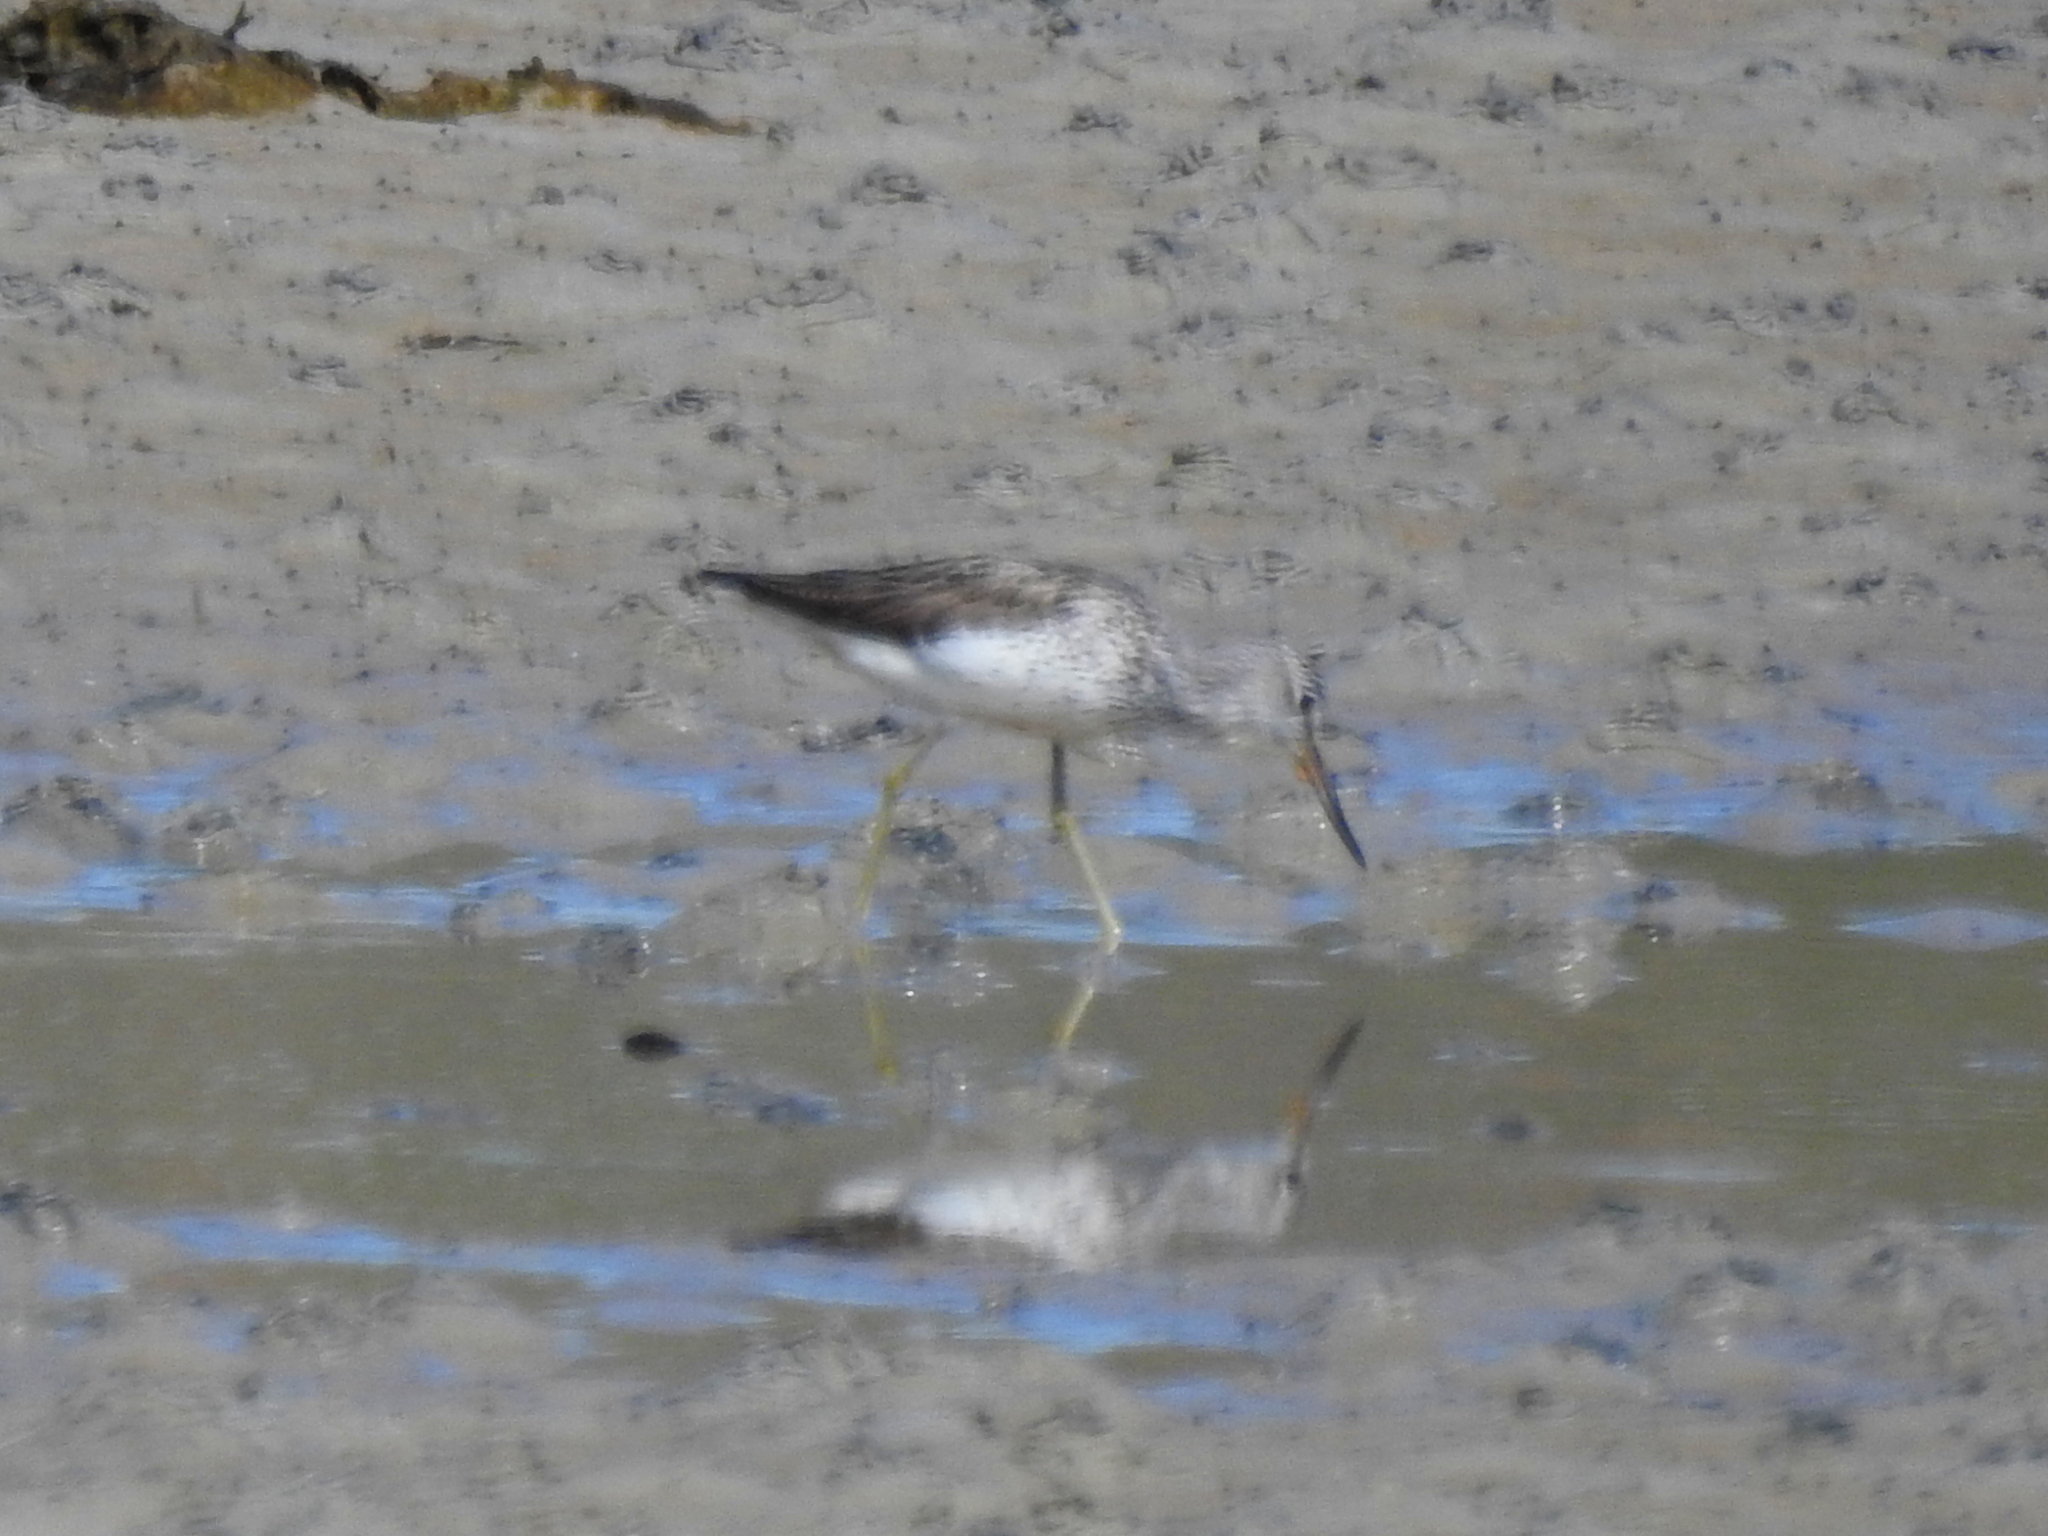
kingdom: Animalia
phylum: Chordata
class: Aves
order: Charadriiformes
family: Scolopacidae
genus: Tringa
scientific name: Tringa nebularia
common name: Common greenshank
